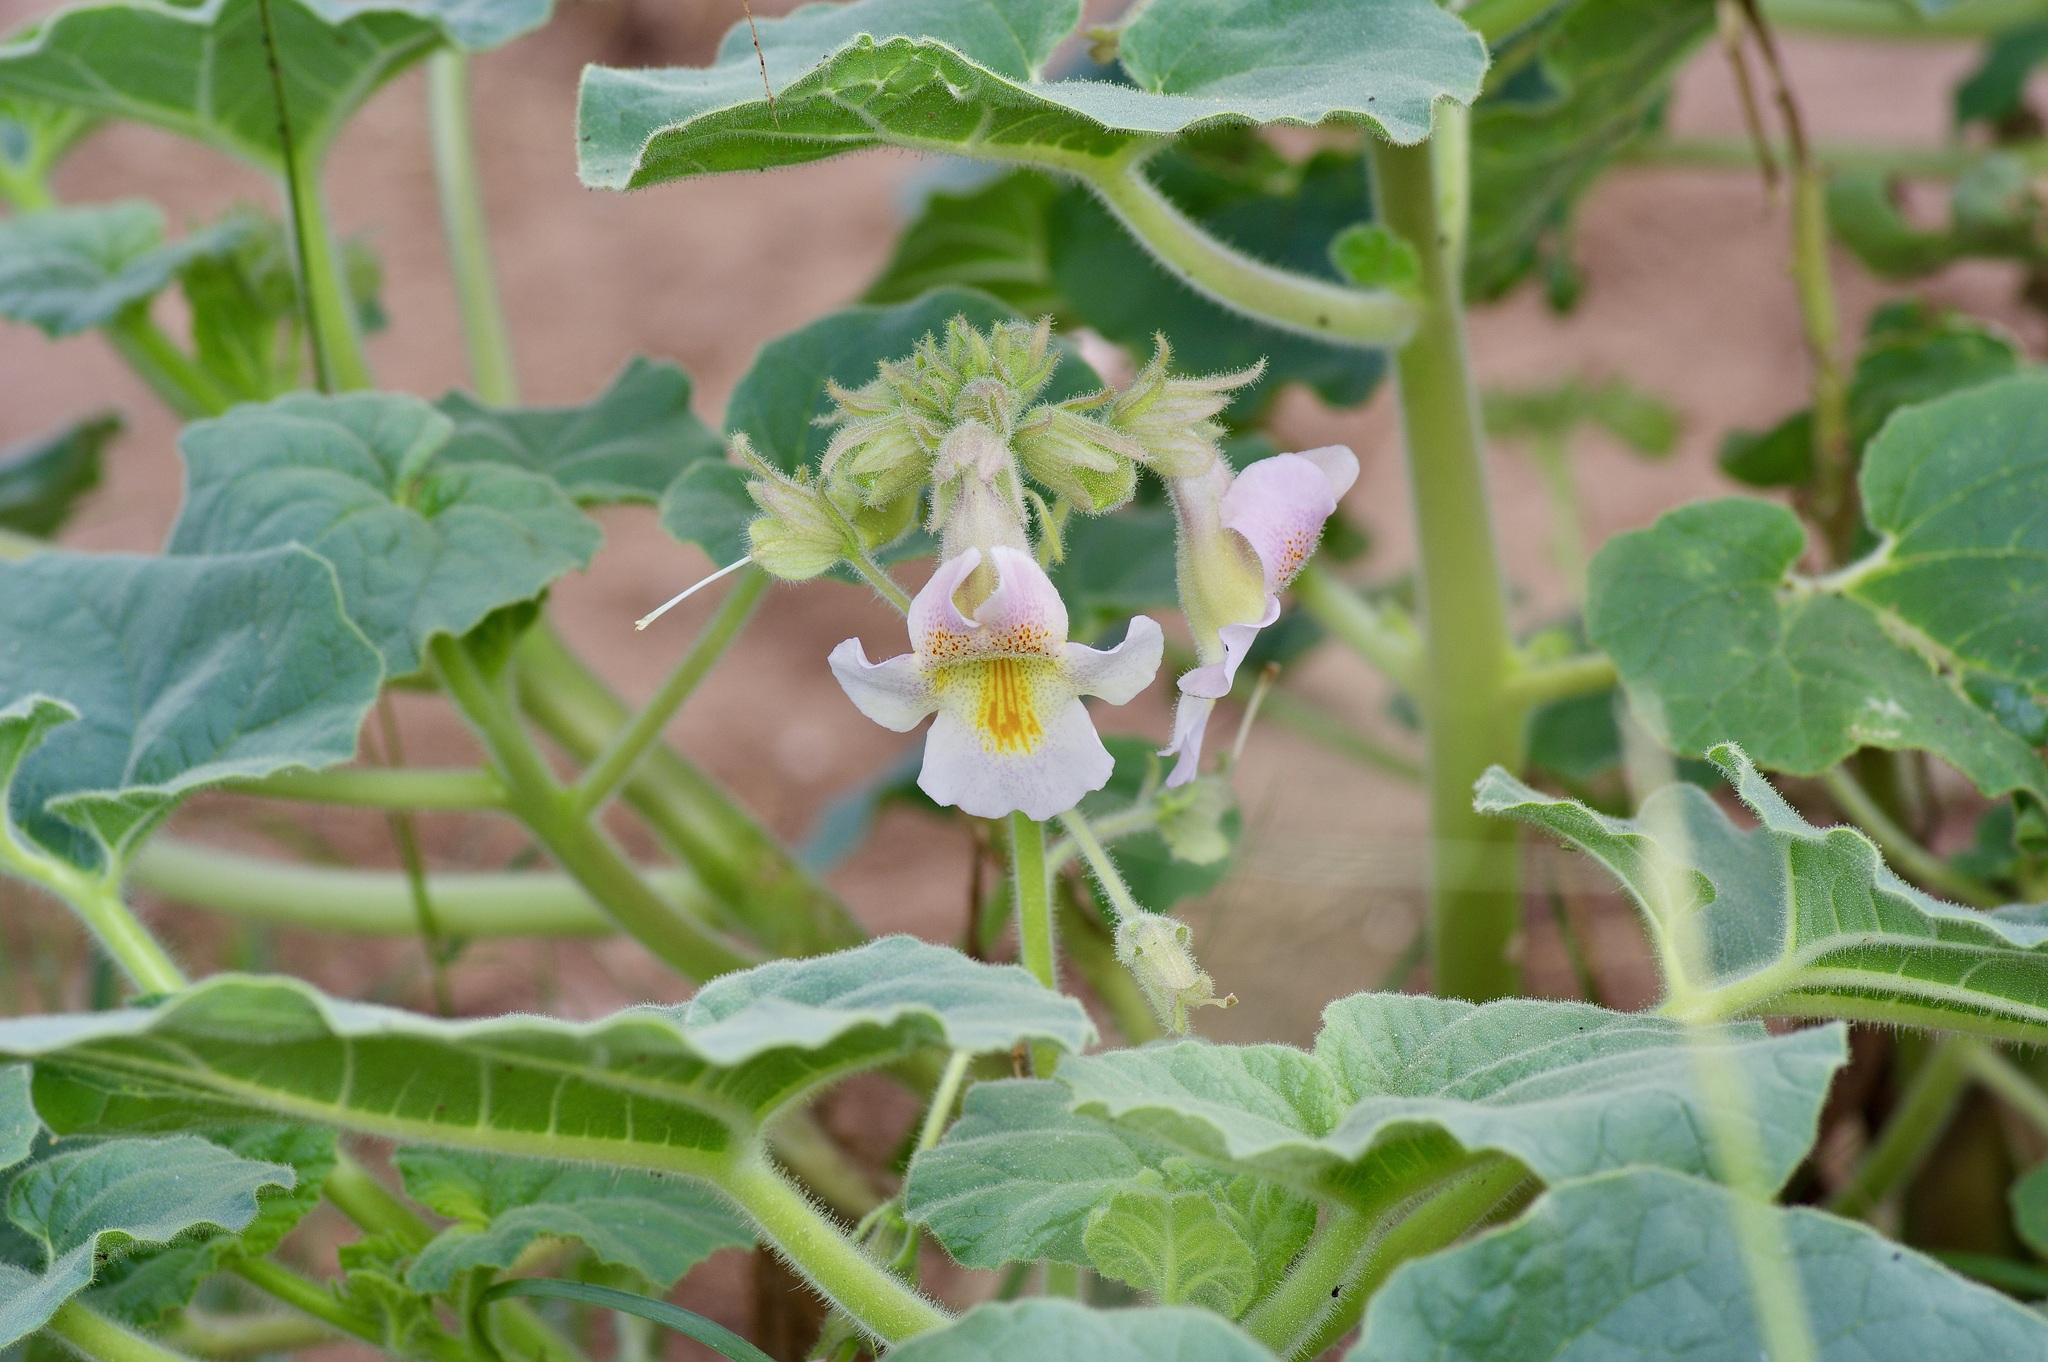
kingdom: Plantae
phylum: Tracheophyta
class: Magnoliopsida
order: Lamiales
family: Martyniaceae
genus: Proboscidea
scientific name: Proboscidea louisianica
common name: Elephant tusks
